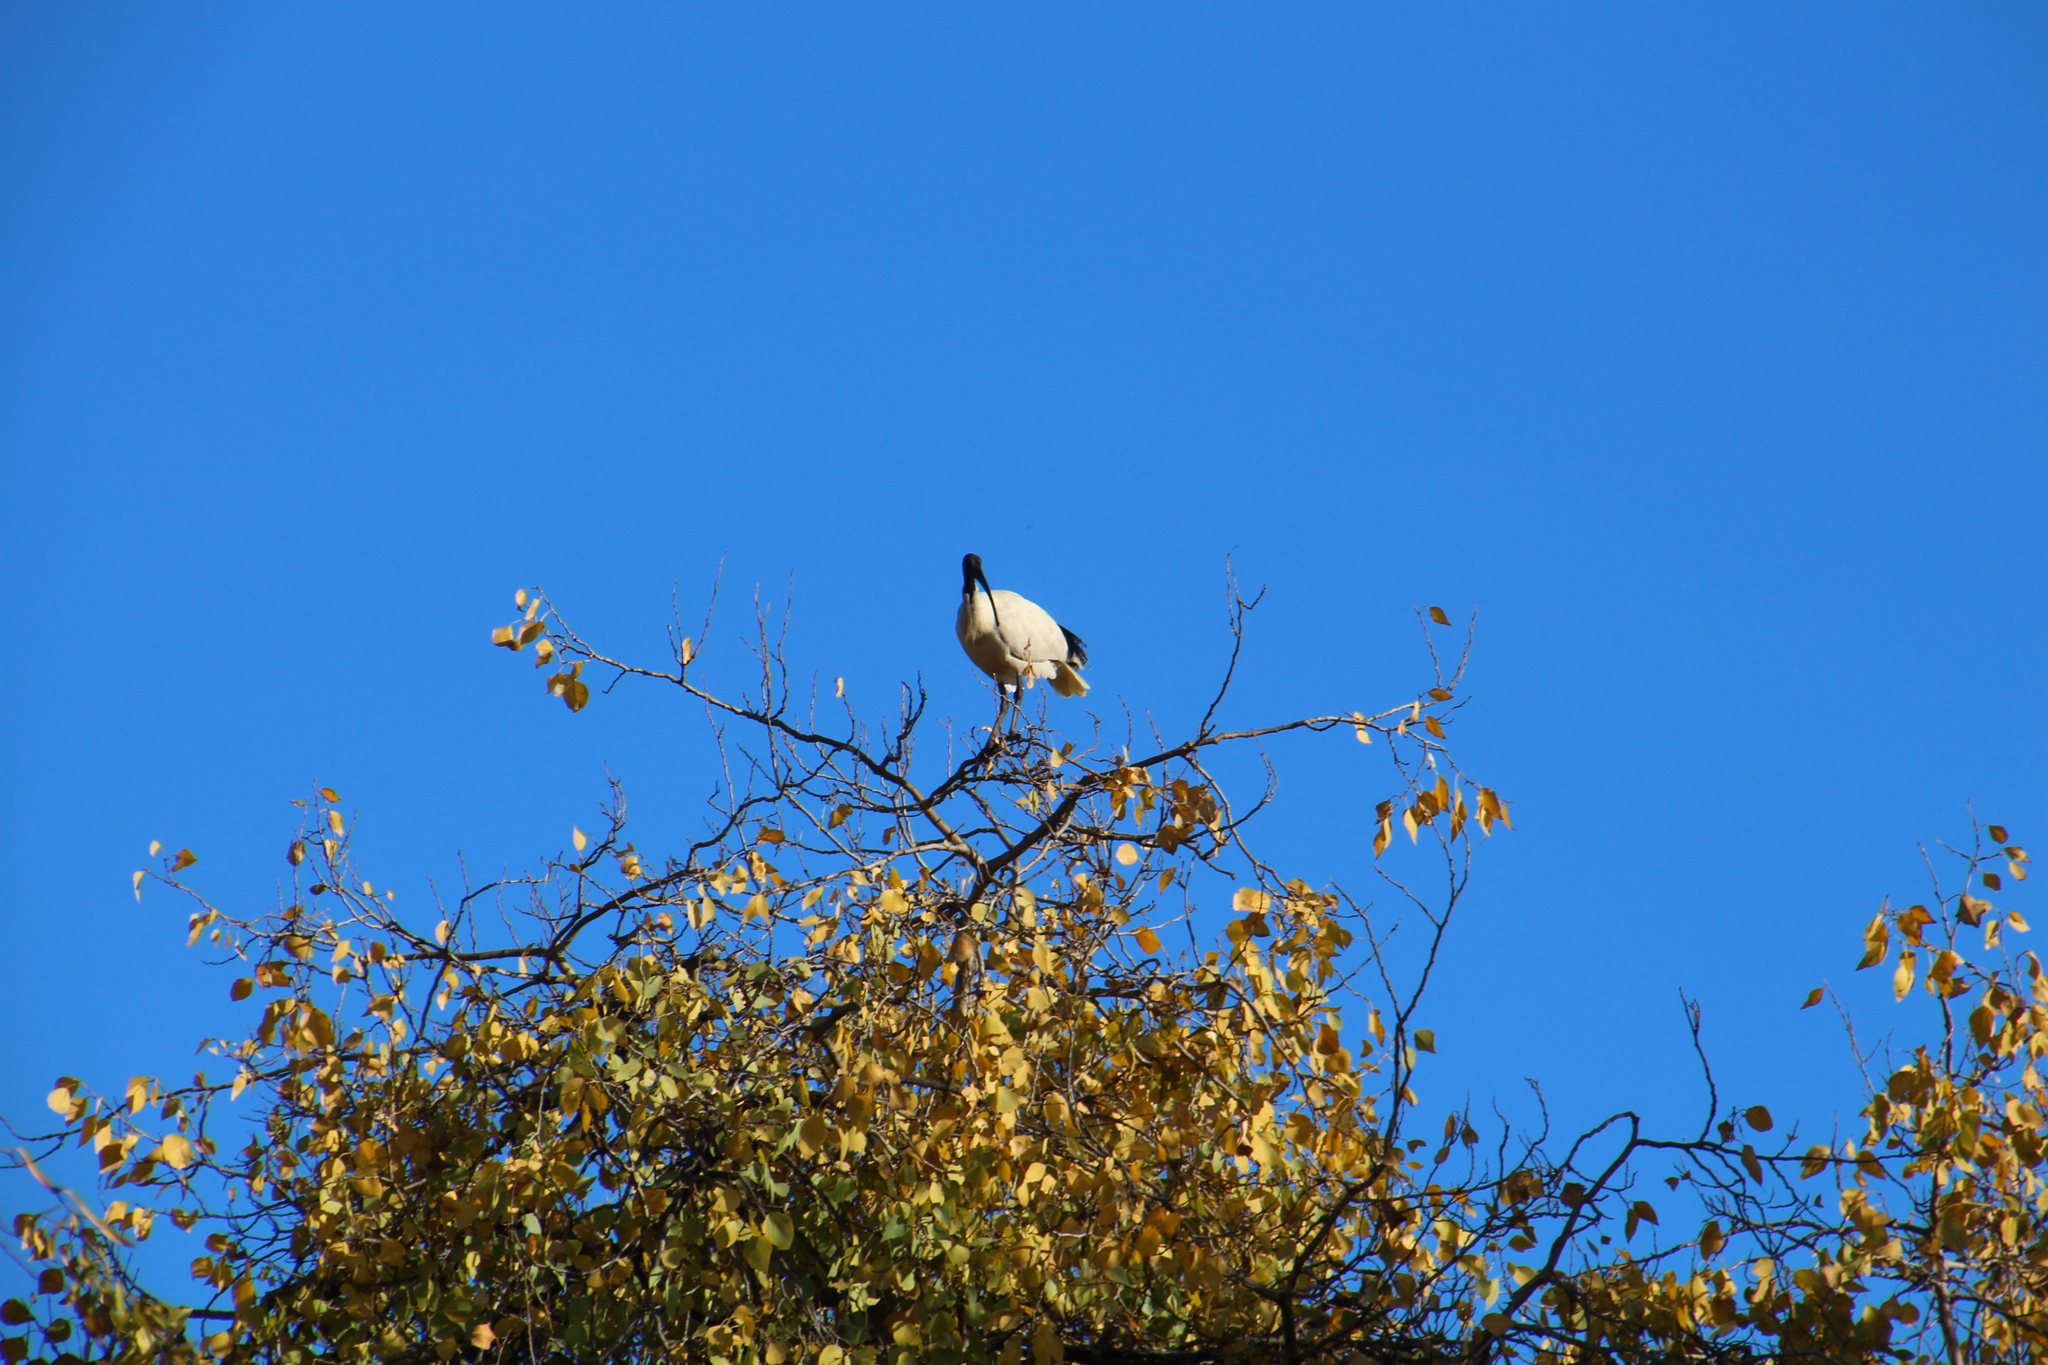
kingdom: Animalia
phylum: Chordata
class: Aves
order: Pelecaniformes
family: Threskiornithidae
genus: Threskiornis
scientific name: Threskiornis molucca
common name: Australian white ibis
